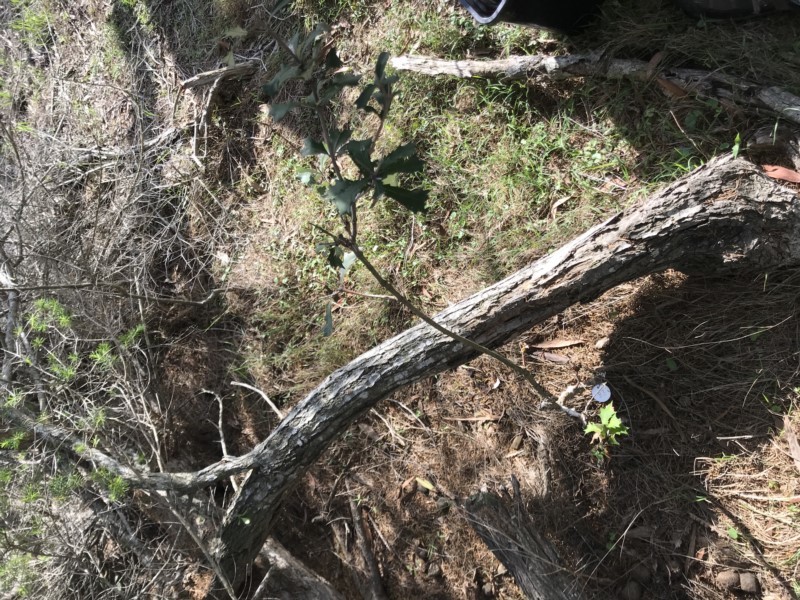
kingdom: Plantae
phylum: Tracheophyta
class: Magnoliopsida
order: Proteales
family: Proteaceae
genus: Banksia
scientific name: Banksia integrifolia
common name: White-honeysuckle
